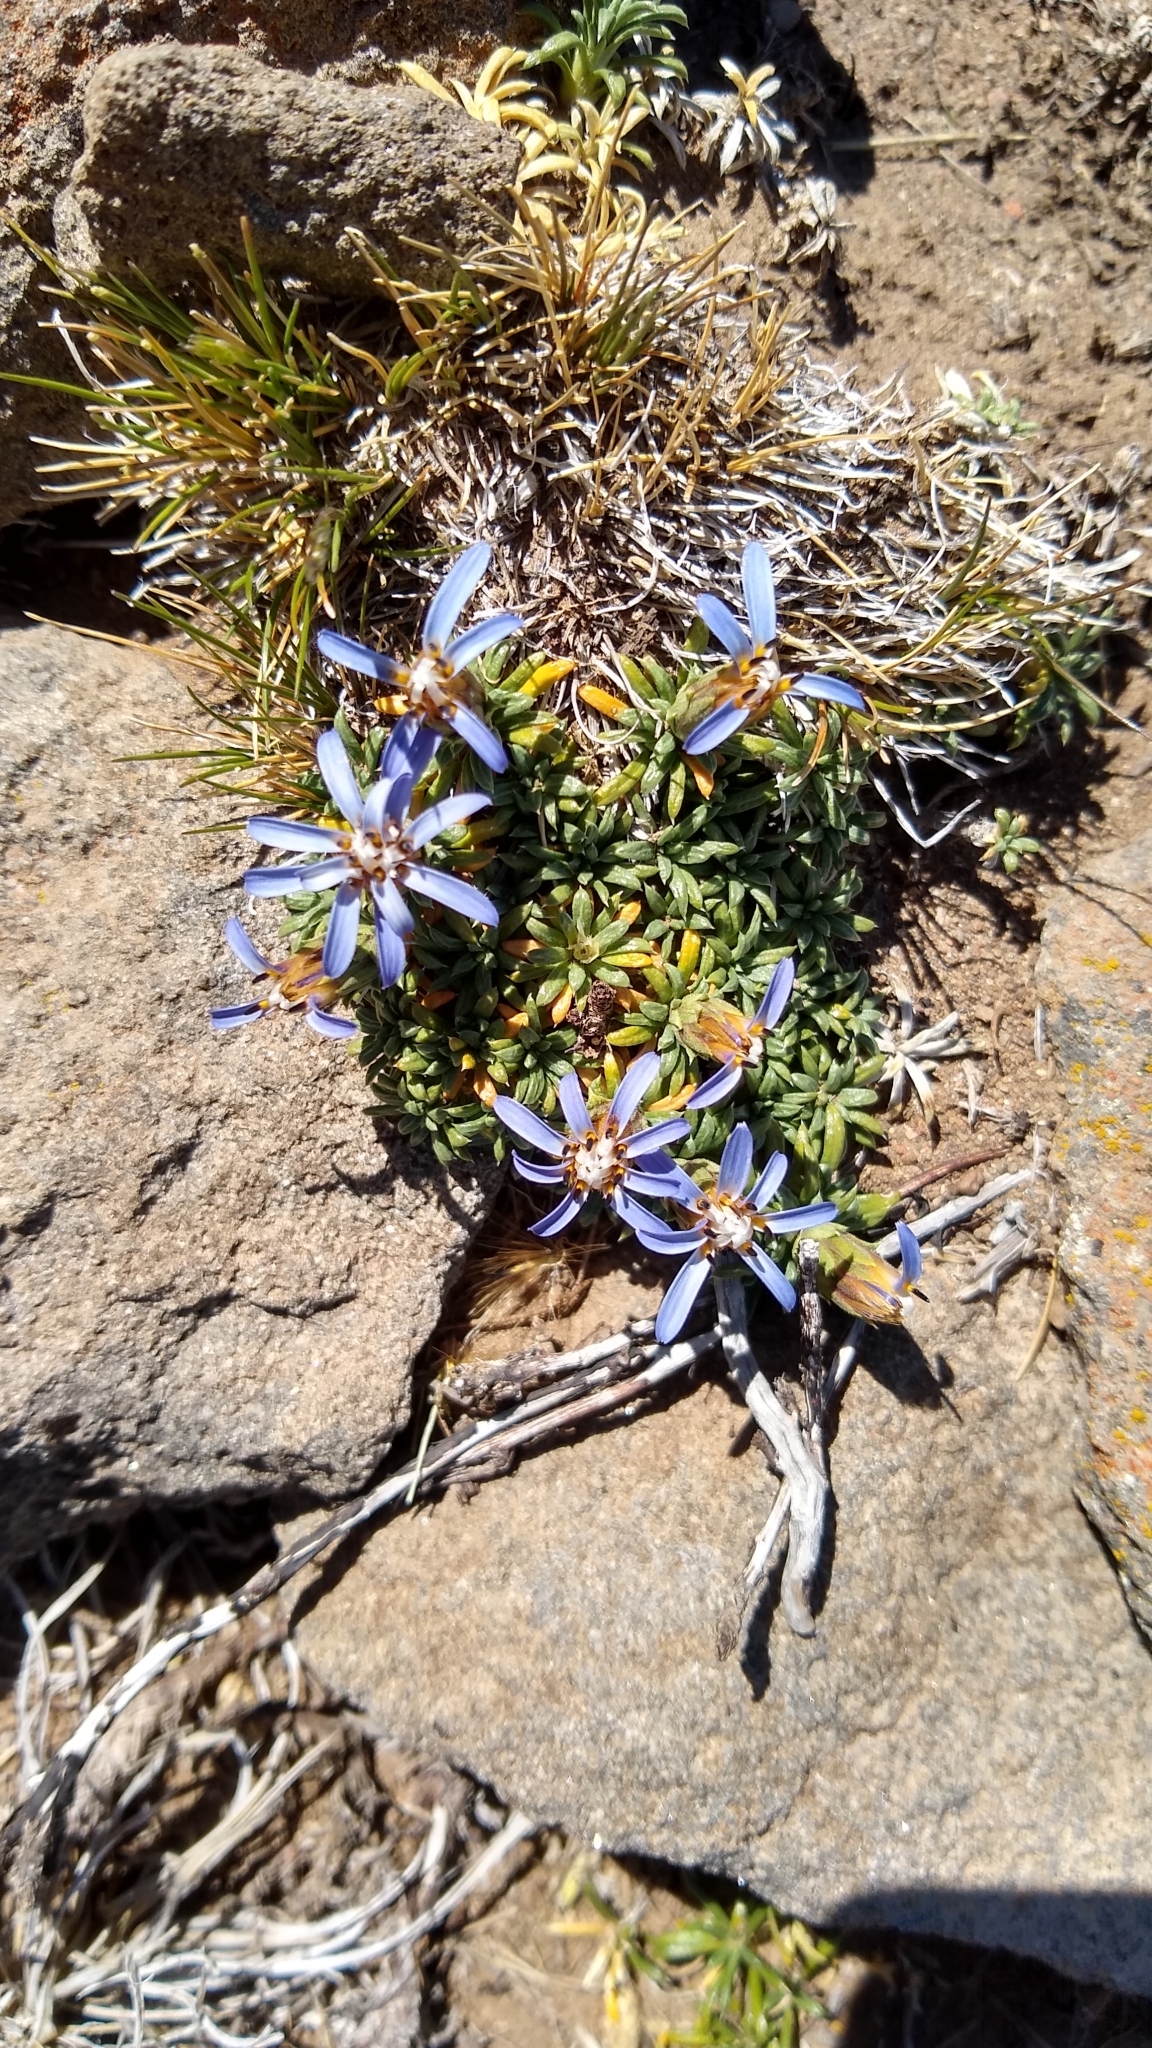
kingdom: Plantae
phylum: Tracheophyta
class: Magnoliopsida
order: Asterales
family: Asteraceae
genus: Perezia
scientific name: Perezia recurvata
